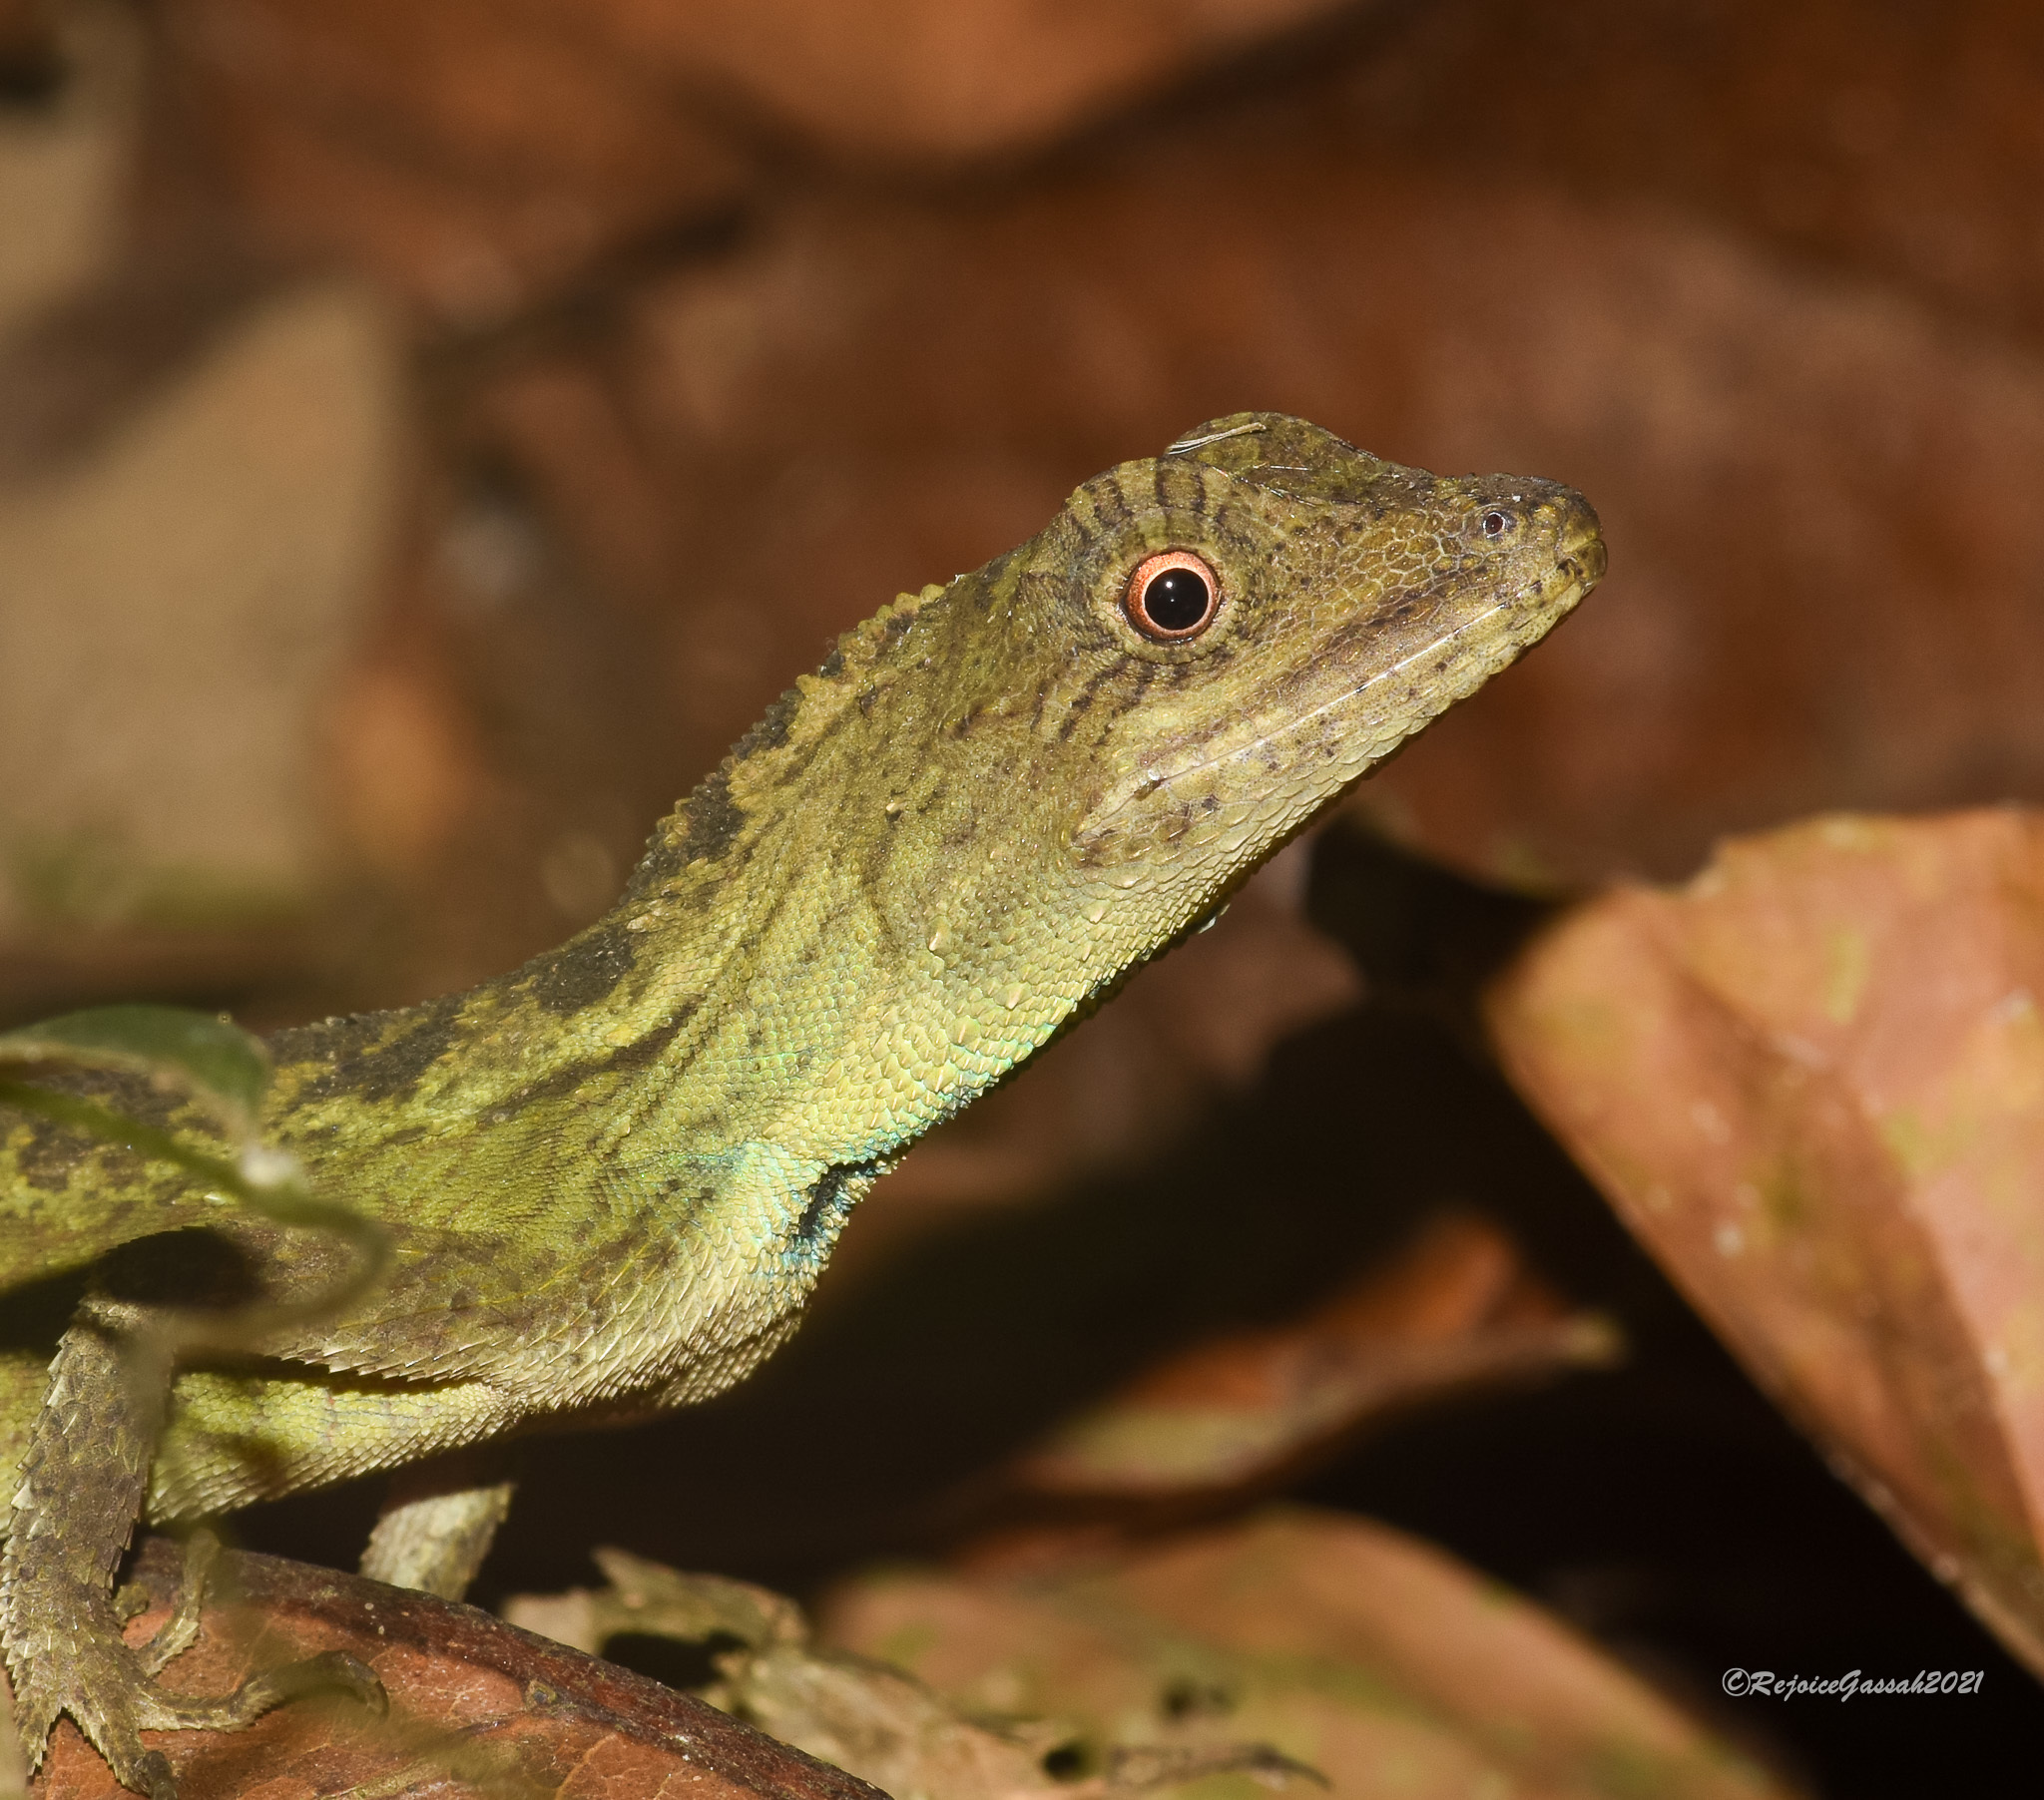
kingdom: Animalia
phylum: Chordata
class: Squamata
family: Agamidae
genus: Ptyctolaemus
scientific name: Ptyctolaemus gularis
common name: Green fan-throated lizard
